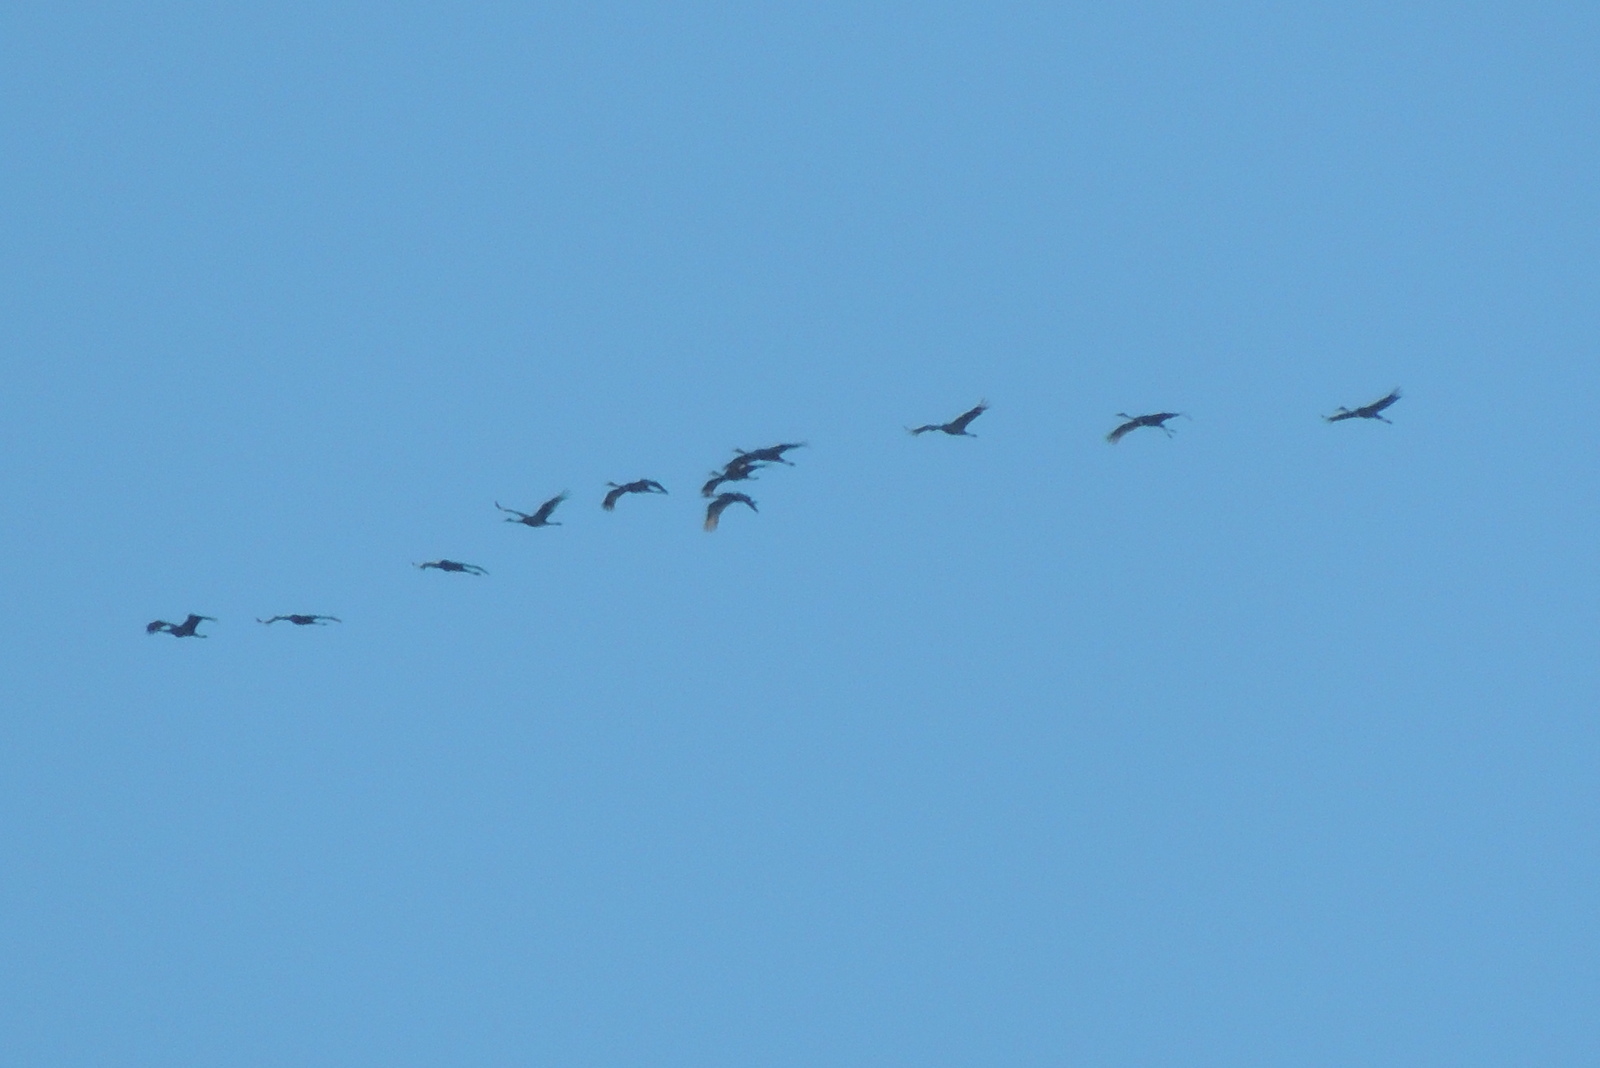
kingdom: Animalia
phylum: Chordata
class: Aves
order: Gruiformes
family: Gruidae
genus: Grus
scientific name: Grus canadensis
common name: Sandhill crane
